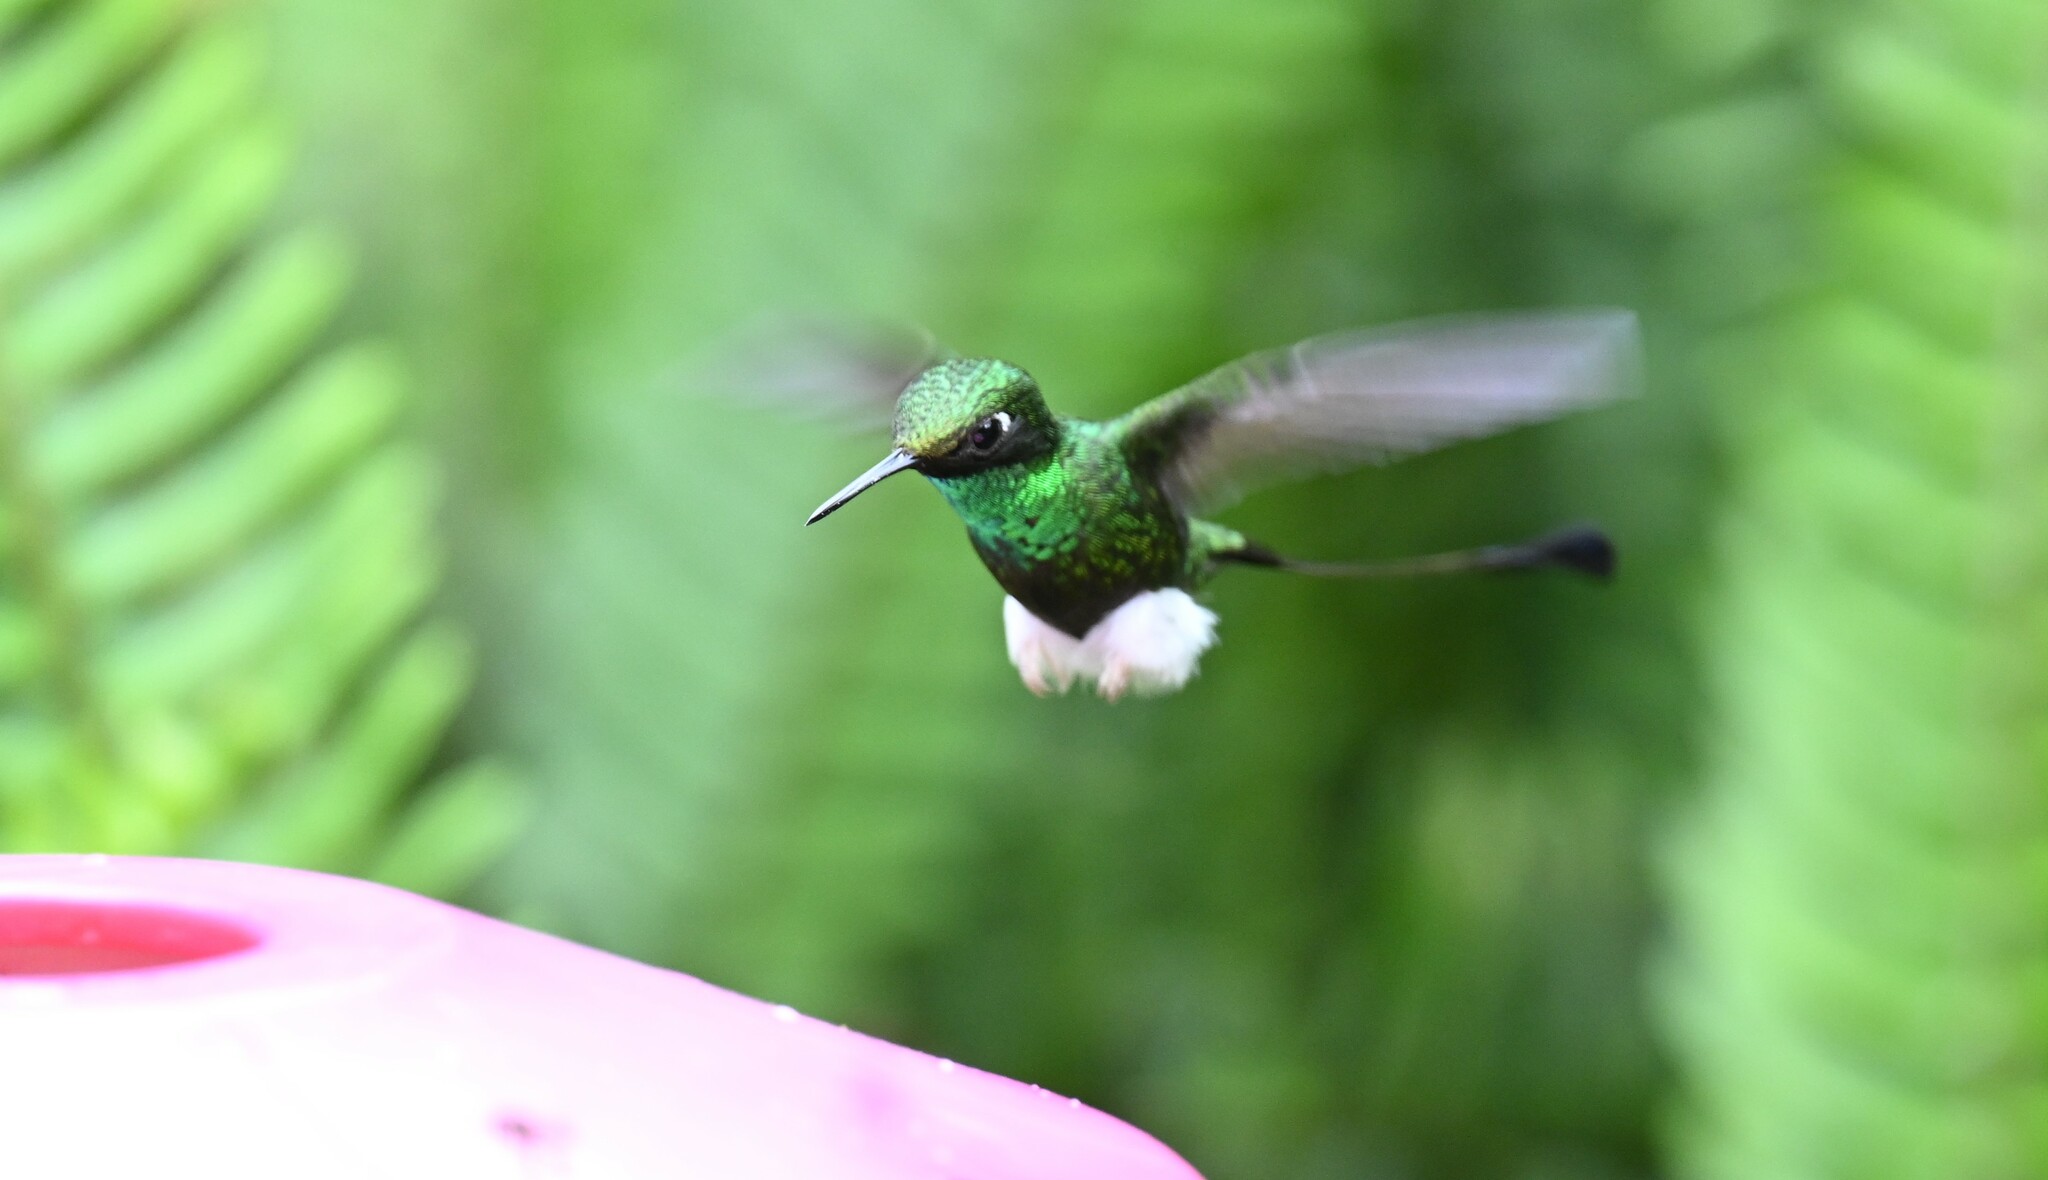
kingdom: Animalia
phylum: Chordata
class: Aves
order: Apodiformes
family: Trochilidae
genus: Ocreatus
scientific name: Ocreatus underwoodii
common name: Booted racket-tail
